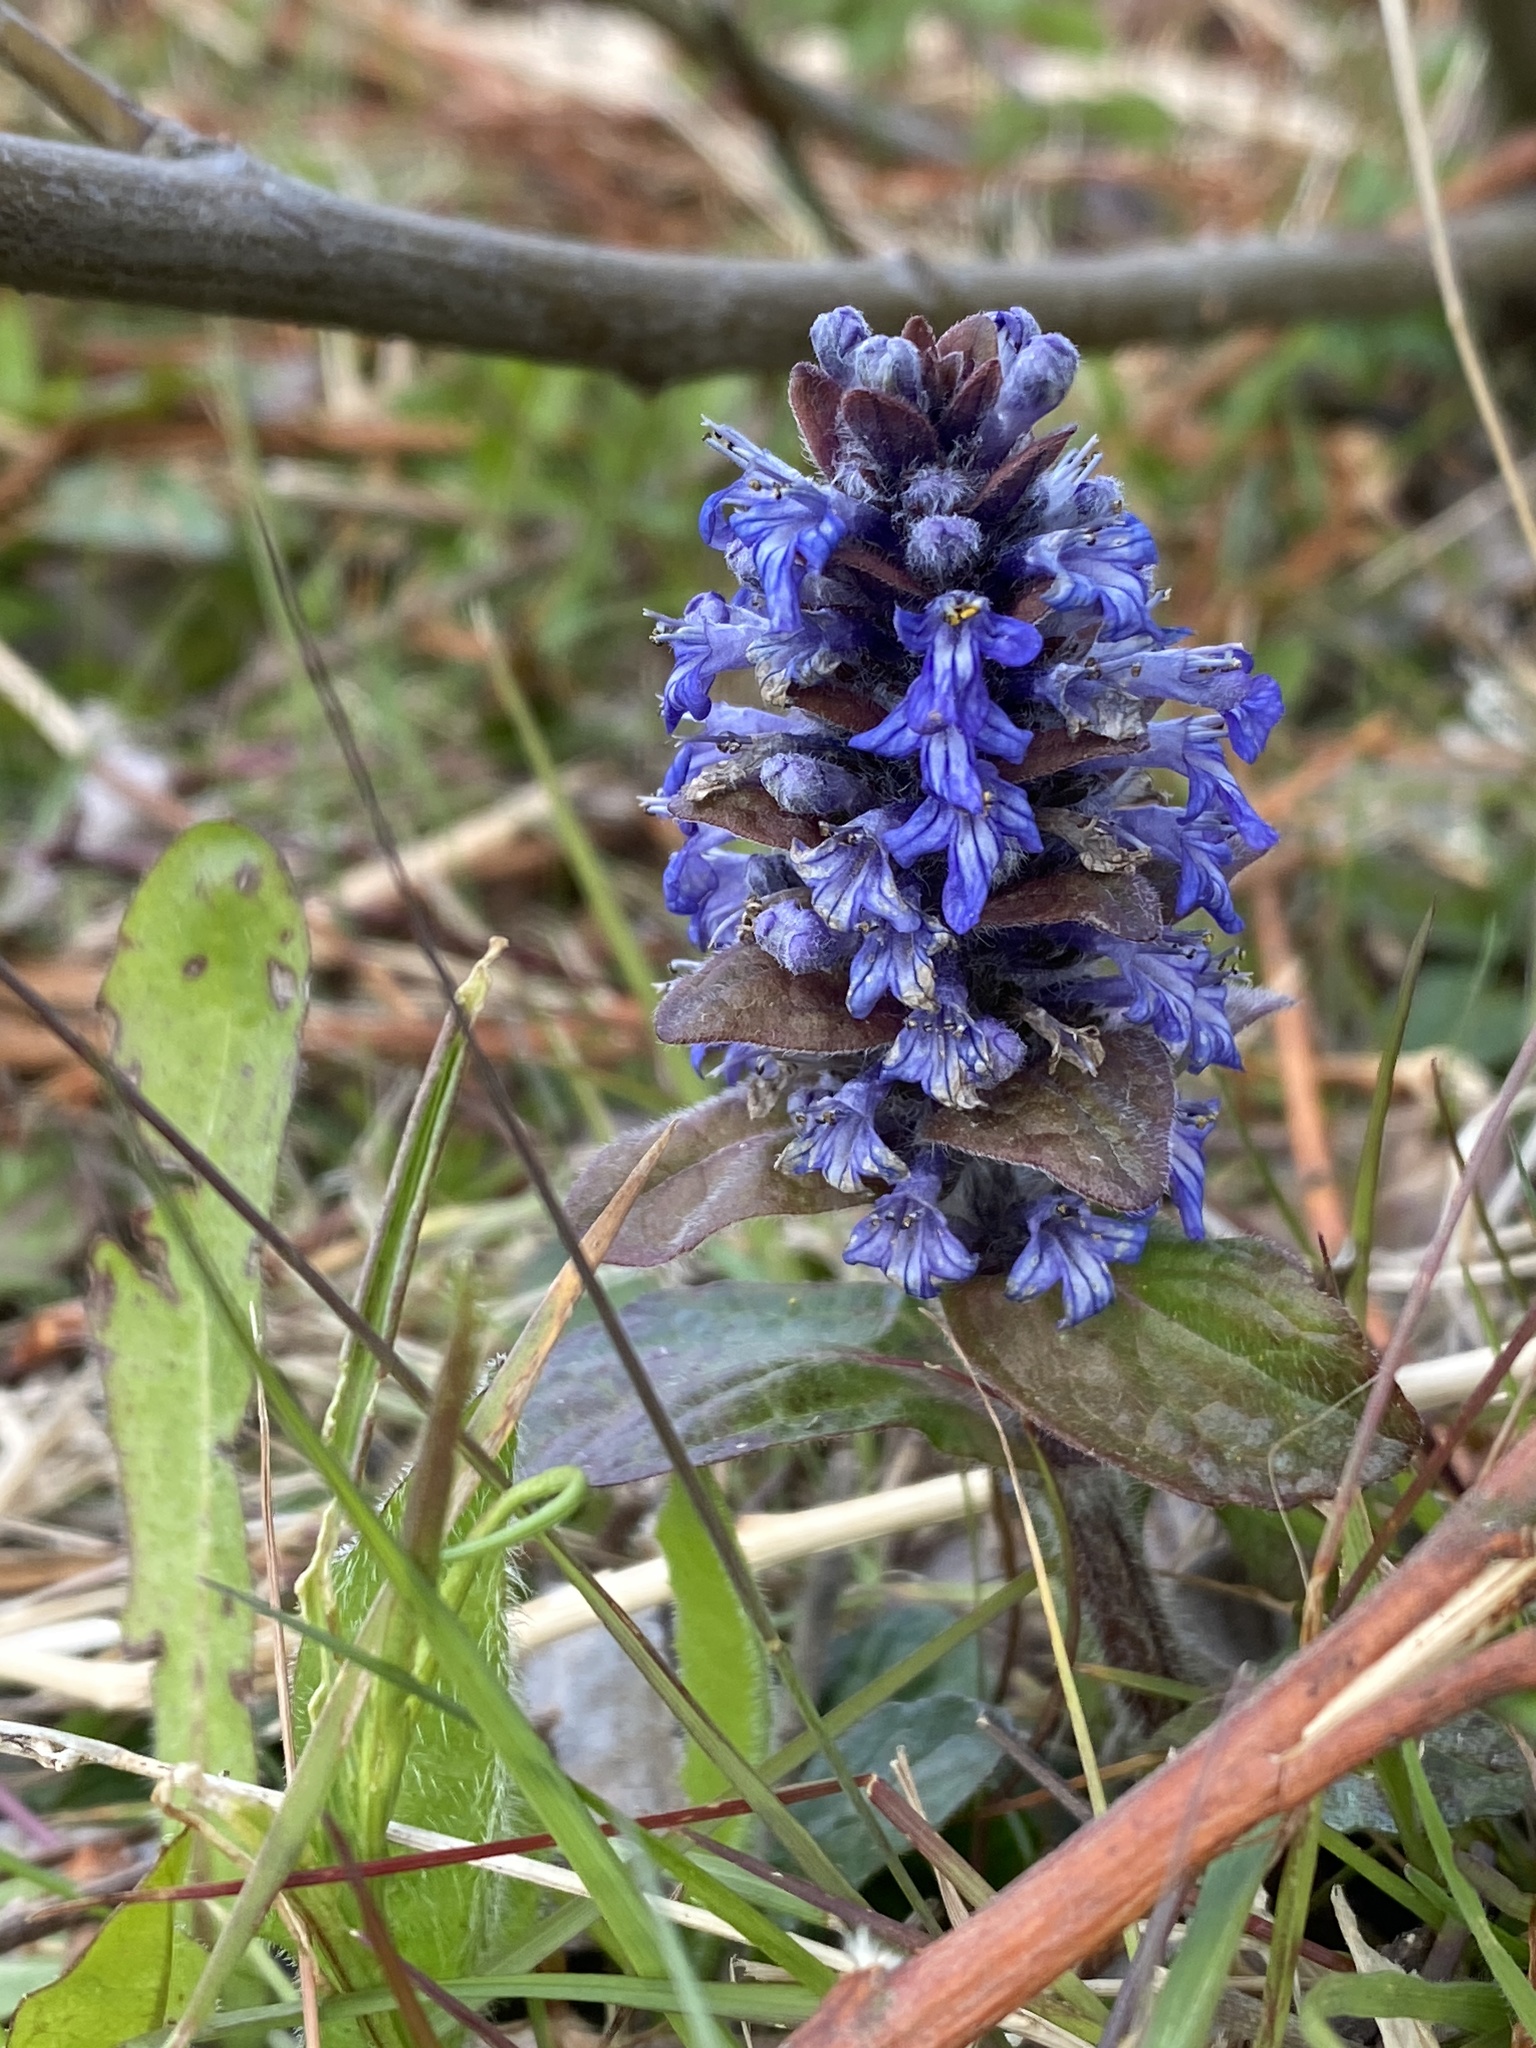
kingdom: Plantae
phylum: Tracheophyta
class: Magnoliopsida
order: Lamiales
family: Lamiaceae
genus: Ajuga
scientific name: Ajuga reptans
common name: Bugle
